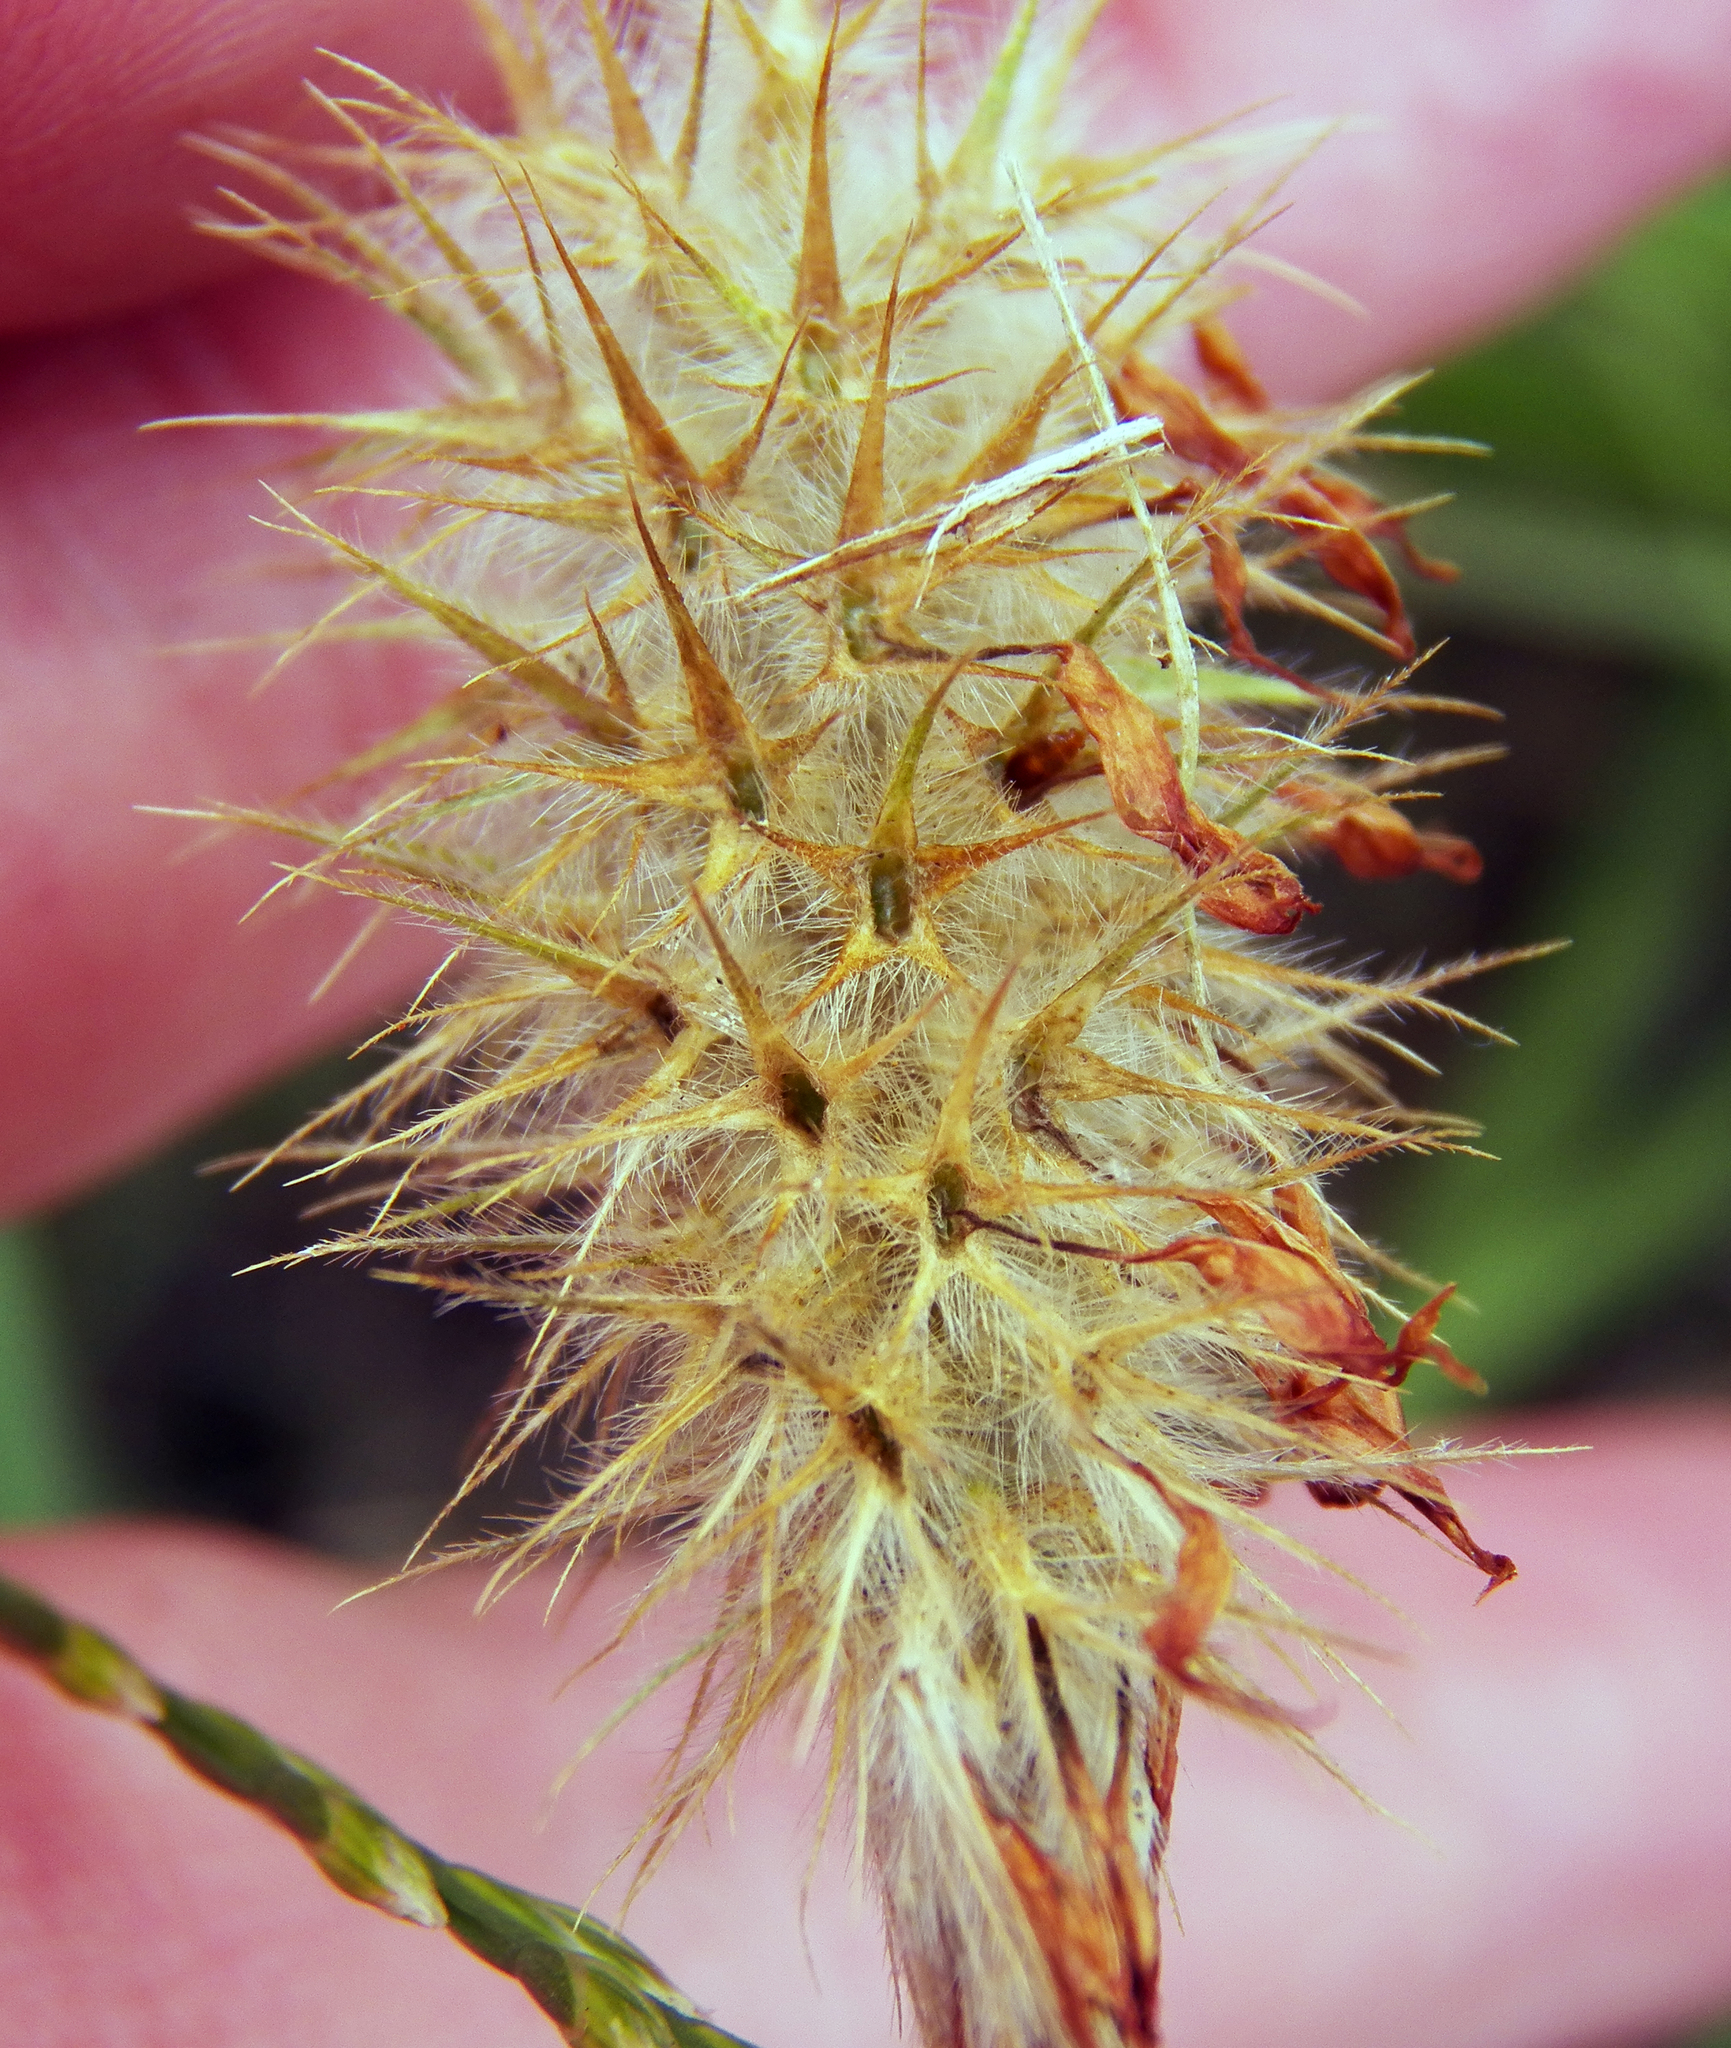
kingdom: Plantae
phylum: Tracheophyta
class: Magnoliopsida
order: Fabales
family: Fabaceae
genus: Trifolium
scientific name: Trifolium incarnatum
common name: Crimson clover
